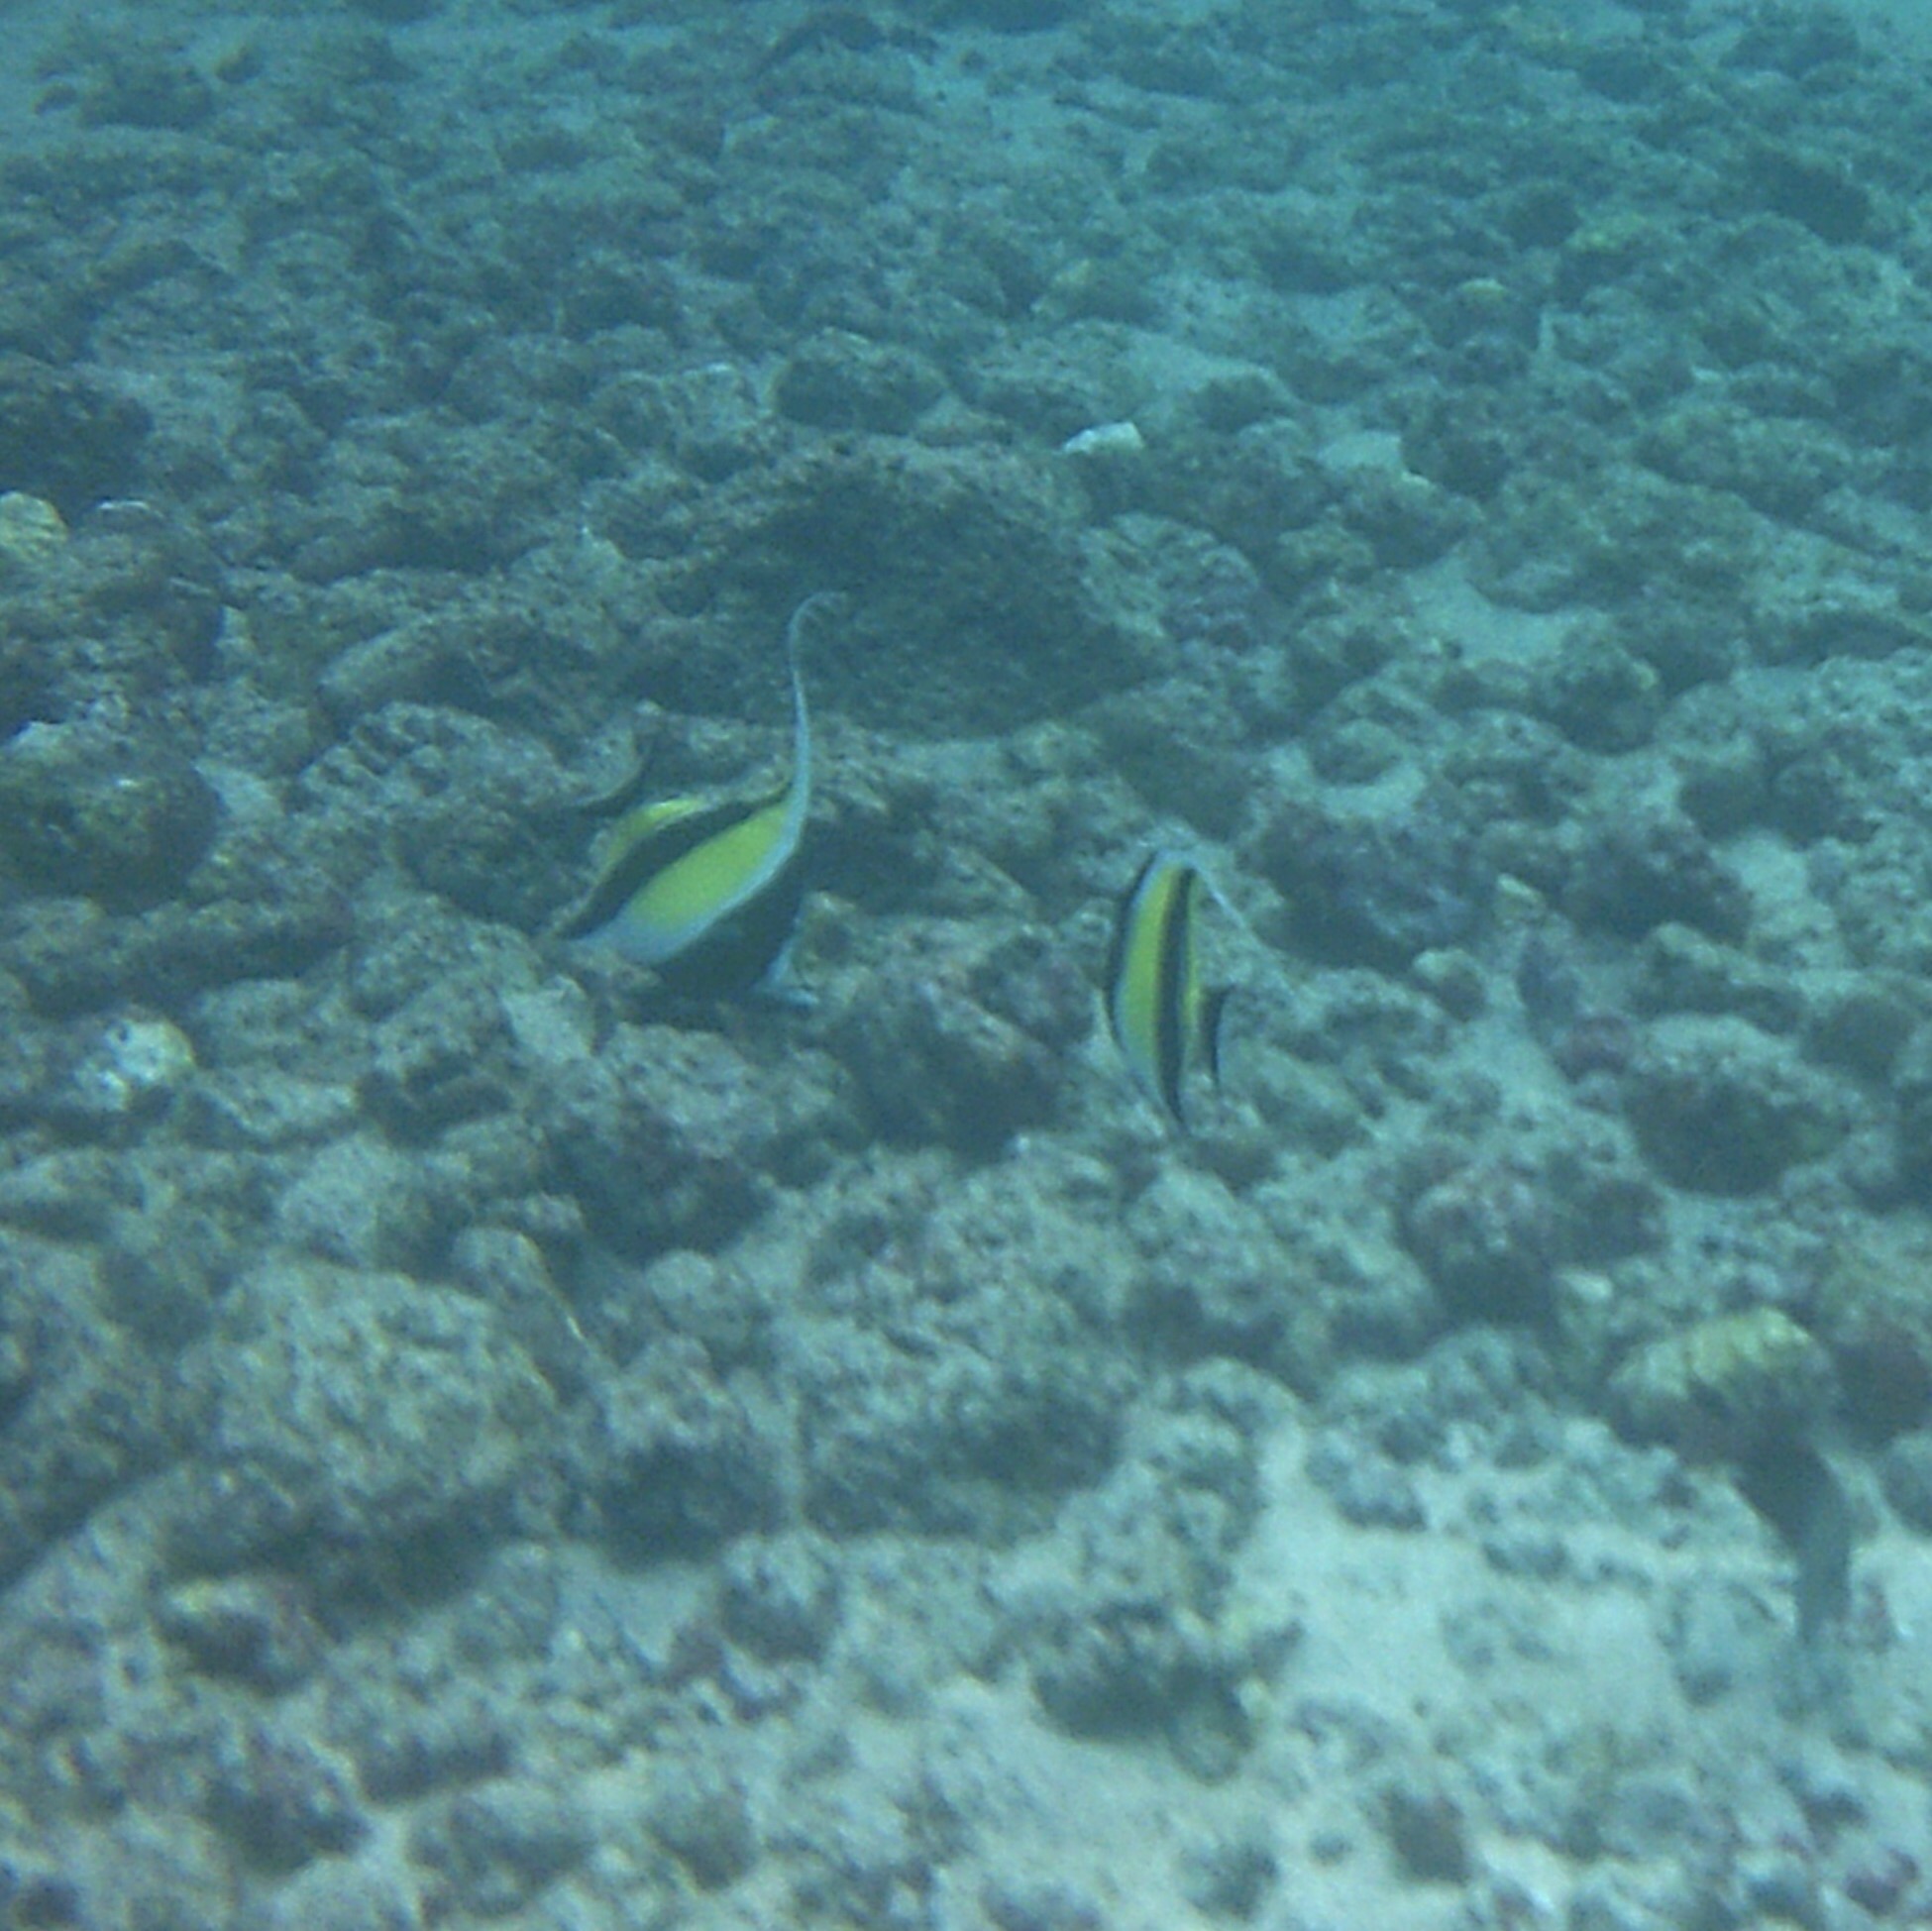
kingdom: Animalia
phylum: Chordata
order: Perciformes
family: Zanclidae
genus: Zanclus
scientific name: Zanclus cornutus
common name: Moorish idol
